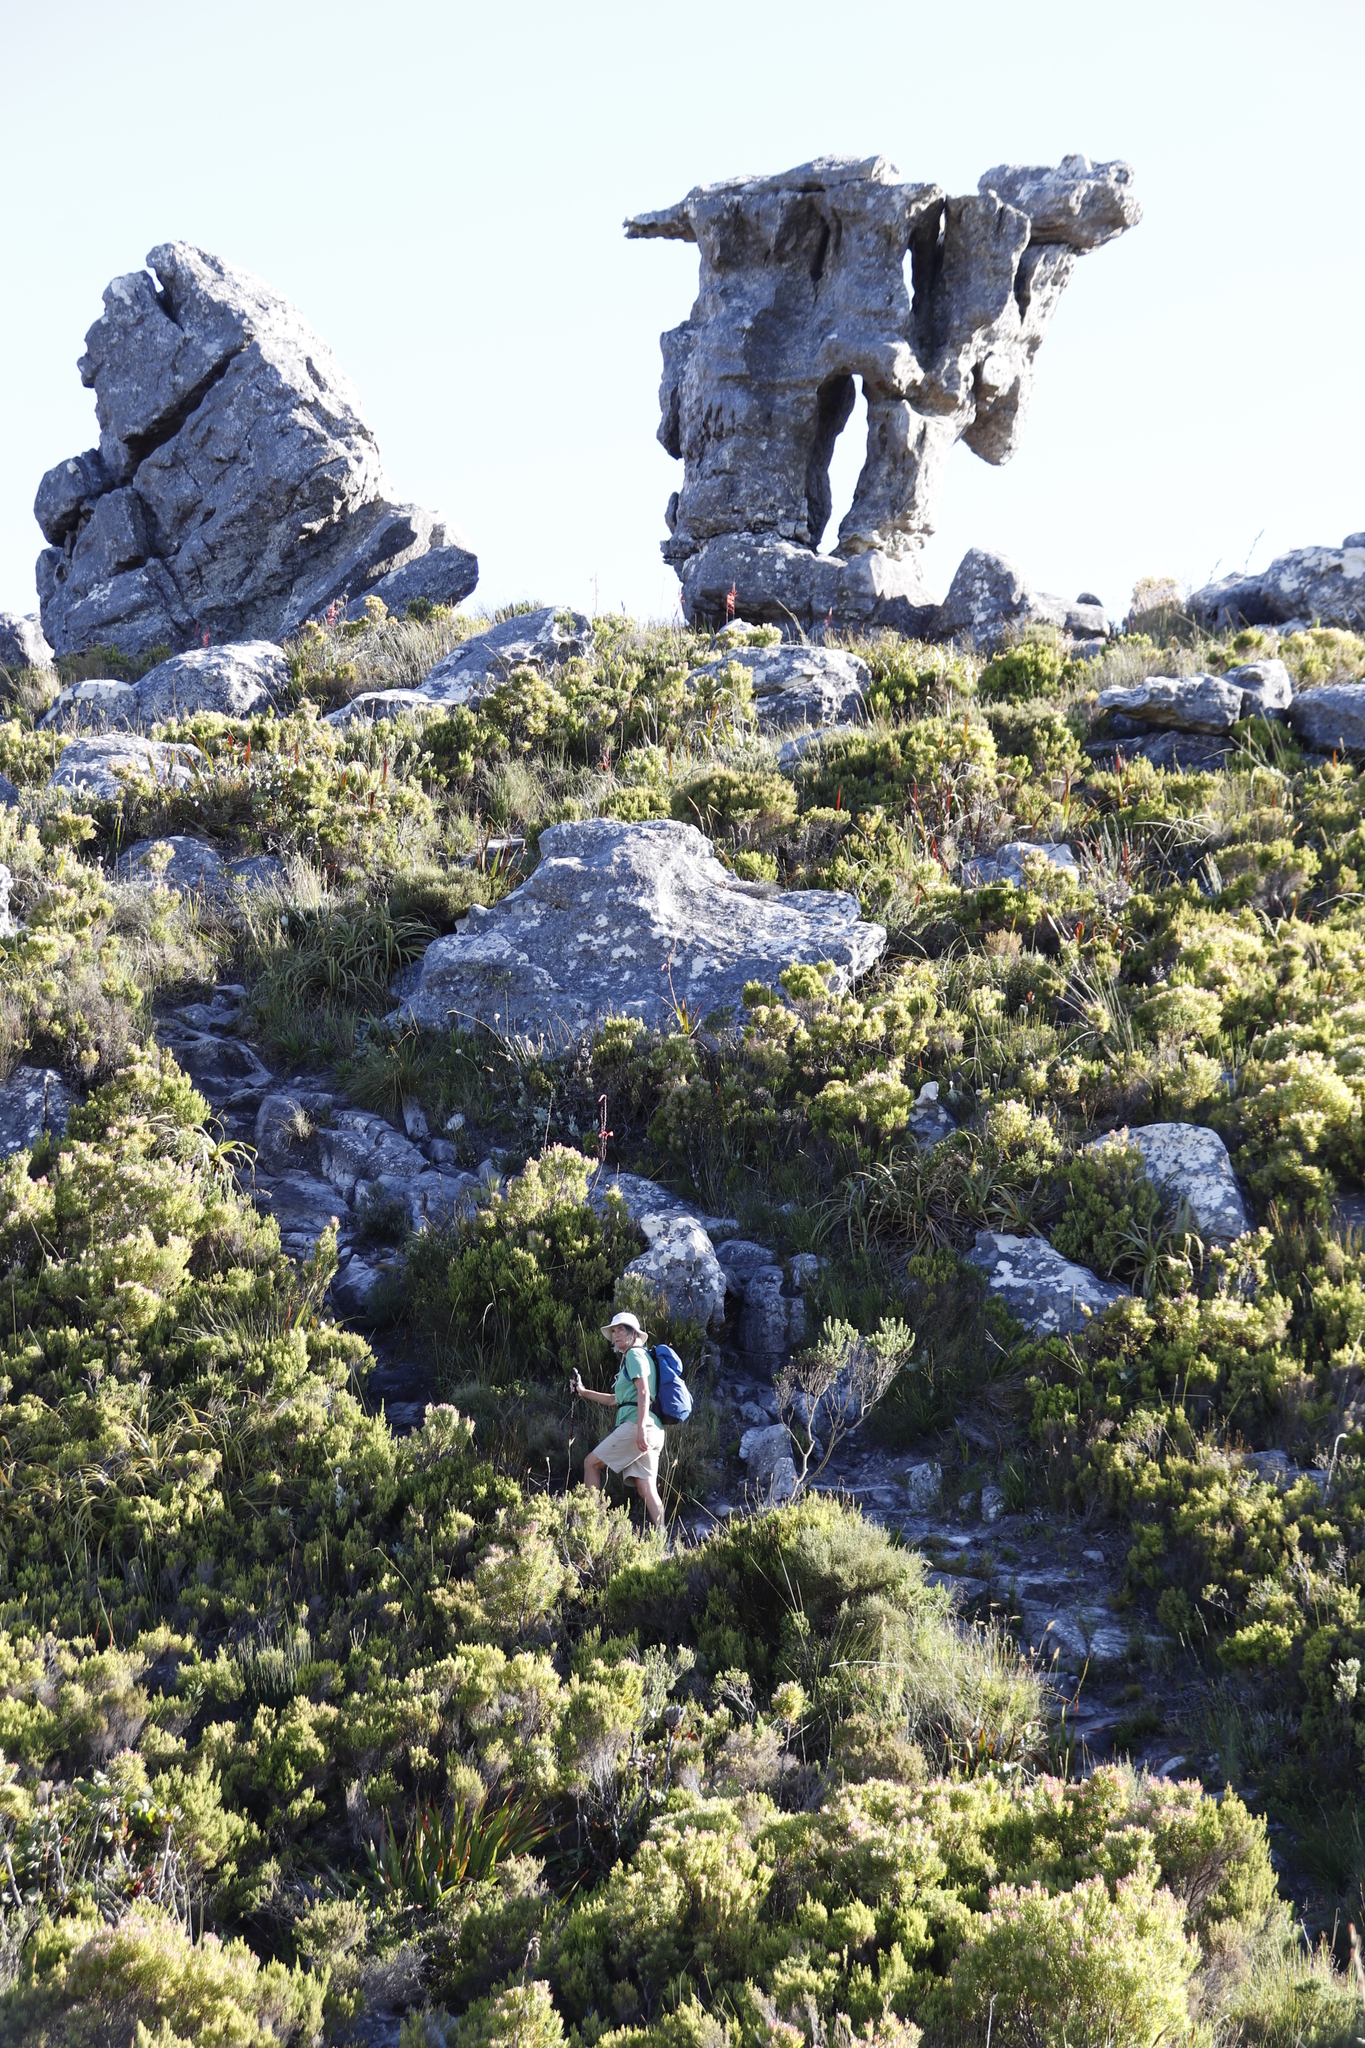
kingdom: Plantae
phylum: Tracheophyta
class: Magnoliopsida
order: Proteales
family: Proteaceae
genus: Leucadendron
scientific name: Leucadendron xanthoconus
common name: Sickle-leaf conebush
